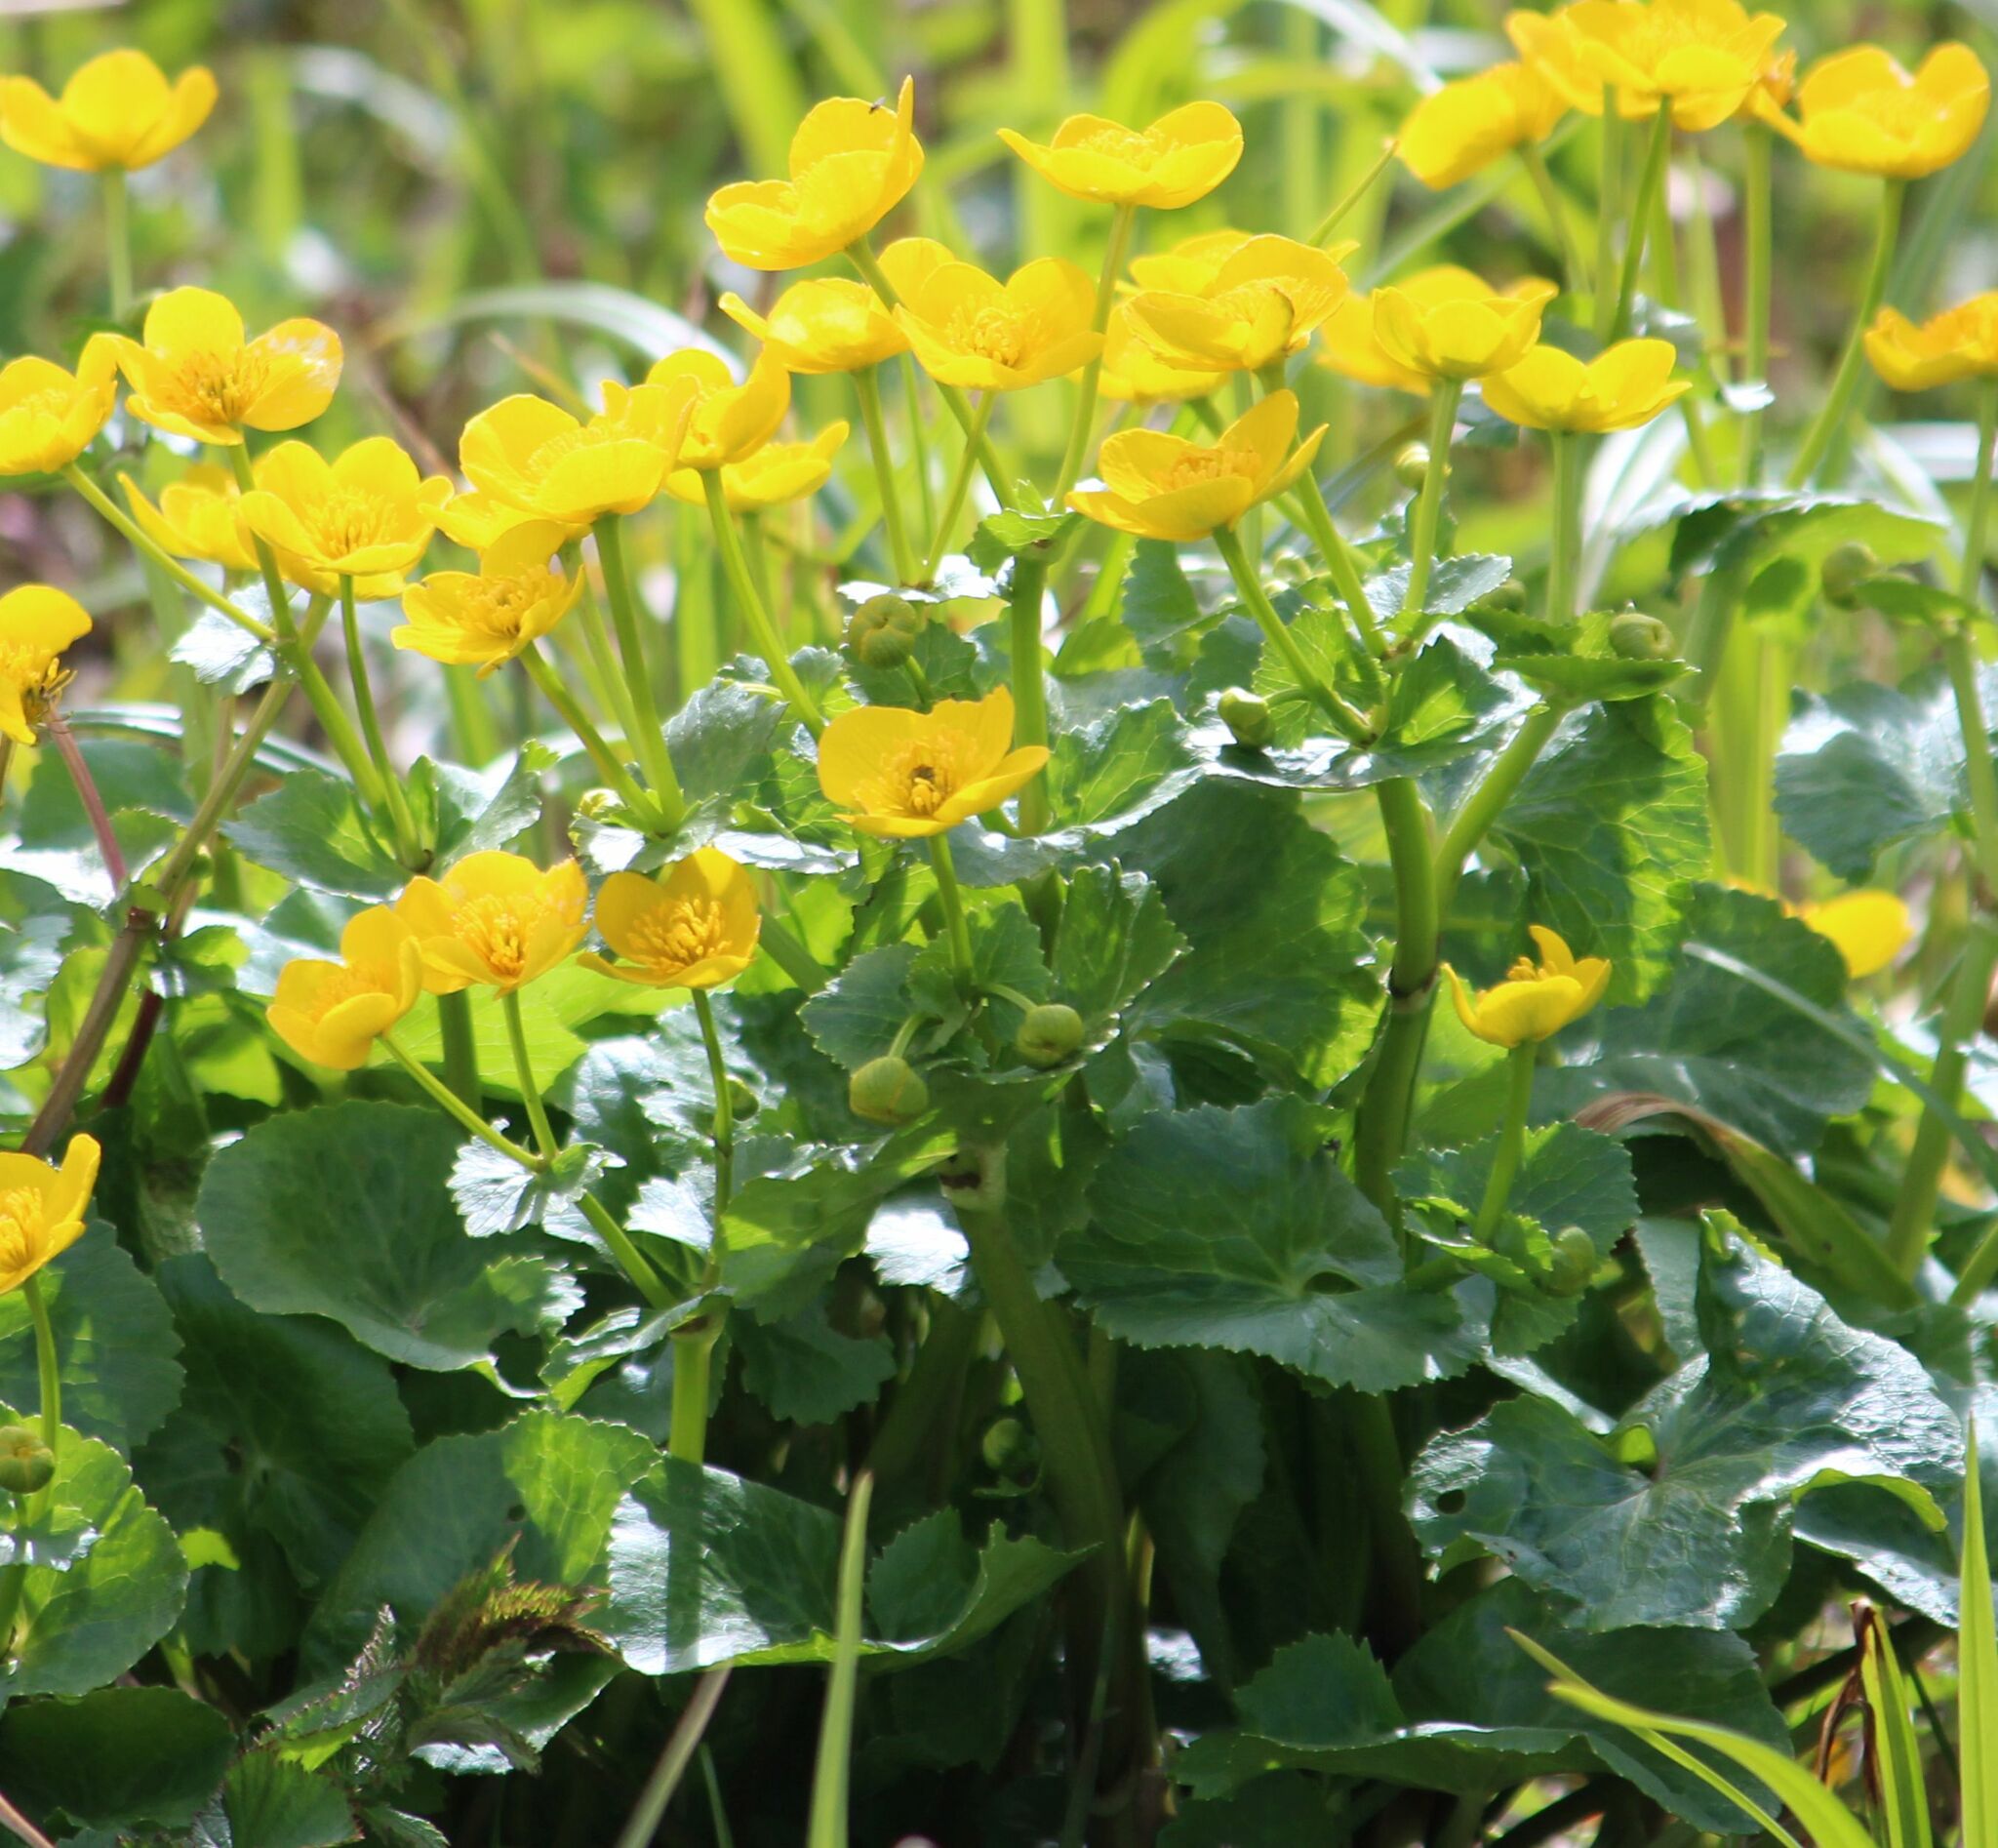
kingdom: Plantae
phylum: Tracheophyta
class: Magnoliopsida
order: Ranunculales
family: Ranunculaceae
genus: Caltha
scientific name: Caltha palustris
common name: Marsh marigold
